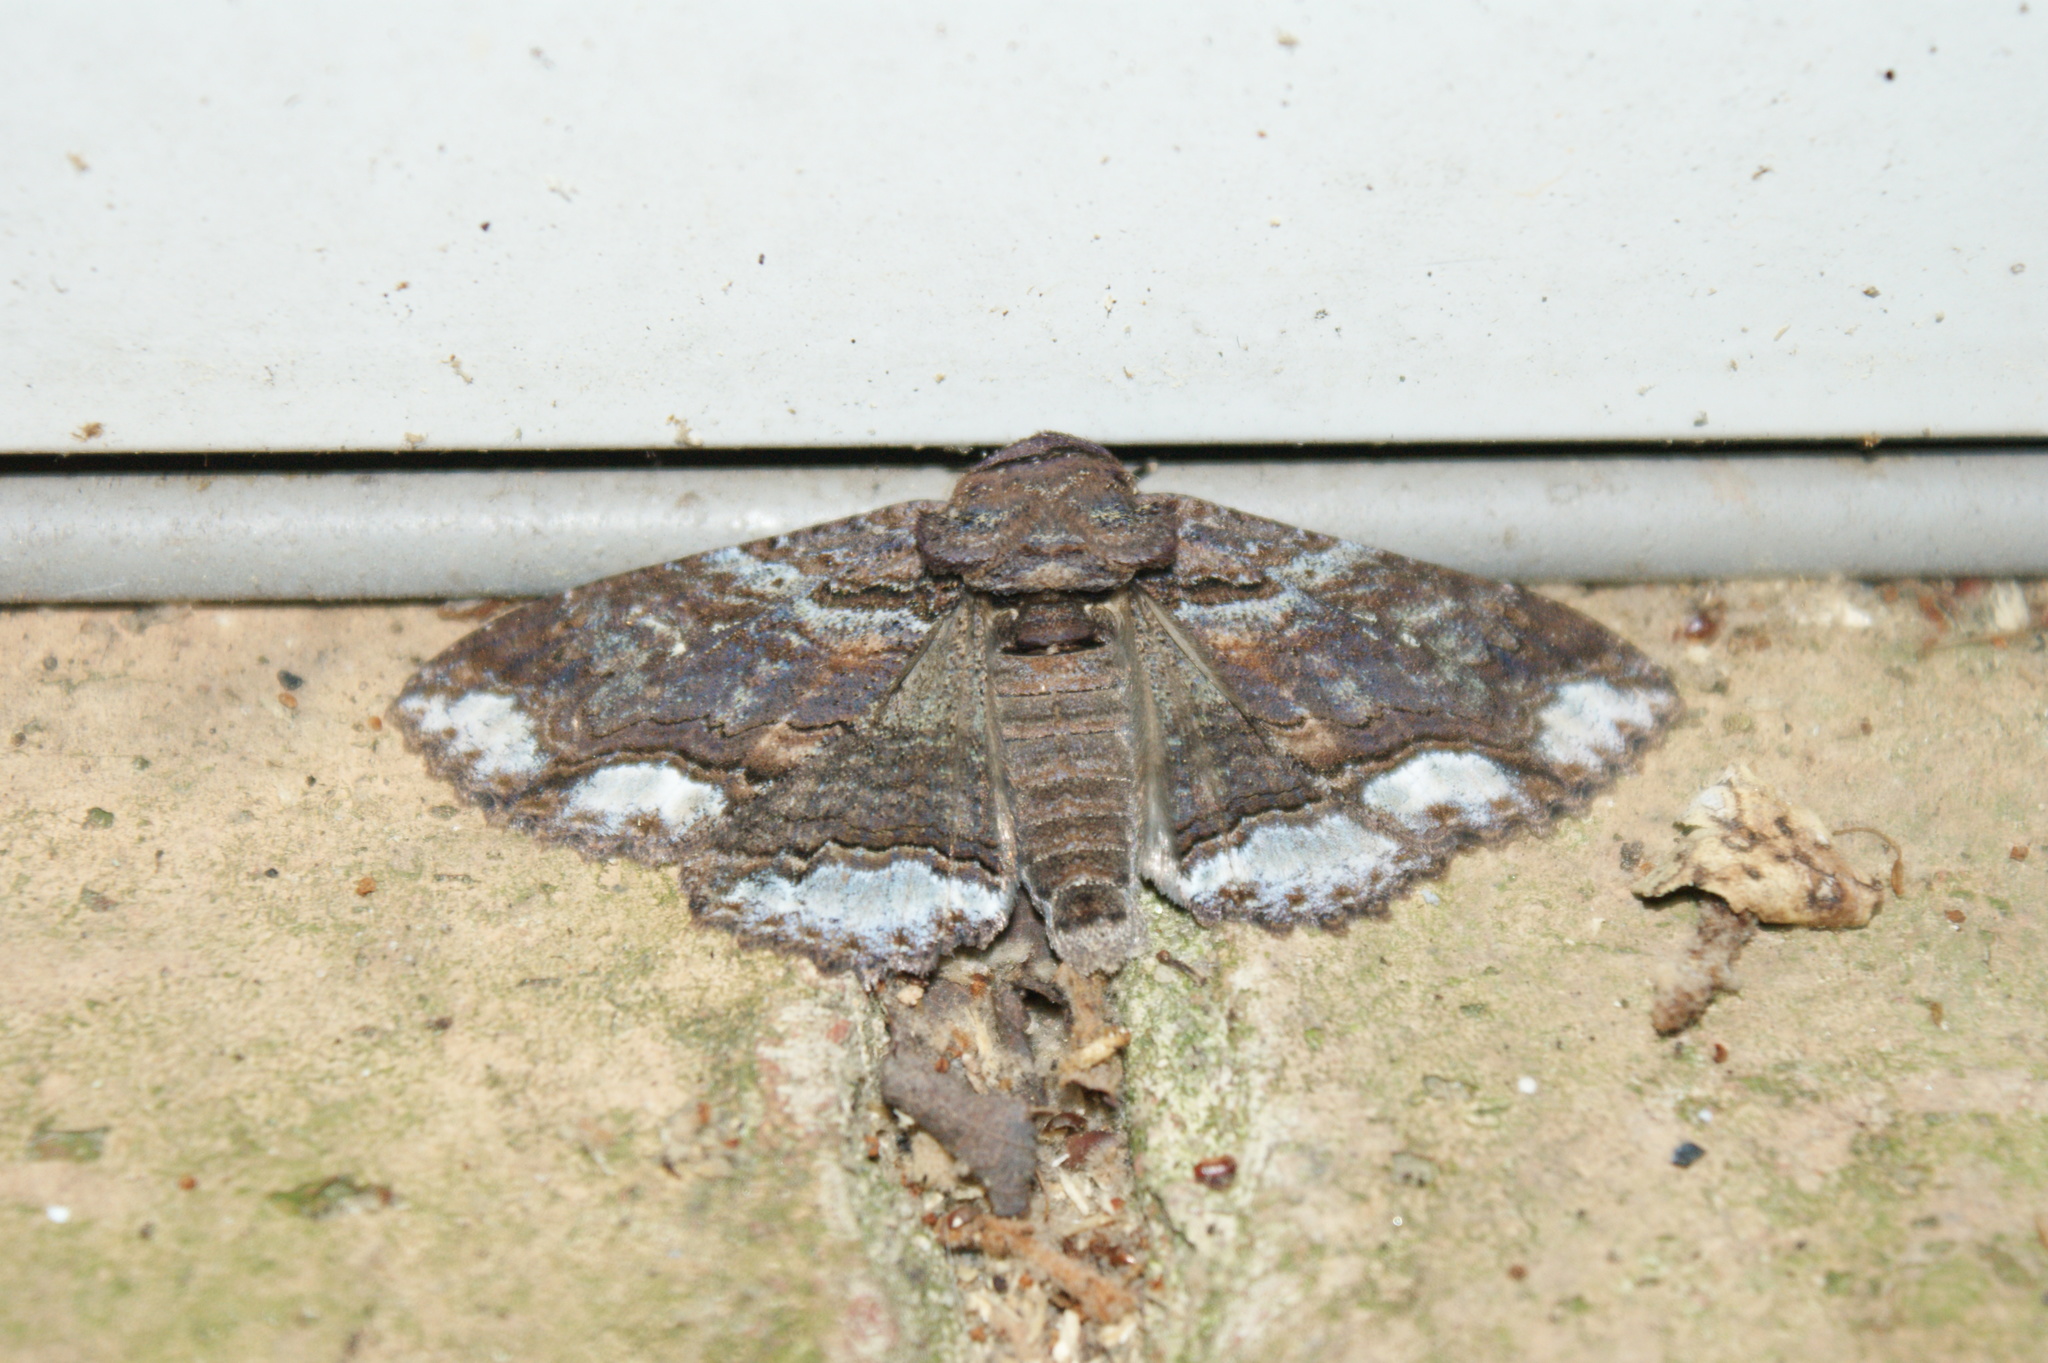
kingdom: Animalia
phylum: Arthropoda
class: Insecta
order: Lepidoptera
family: Erebidae
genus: Zale
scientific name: Zale lunata
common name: Lunate zale moth
